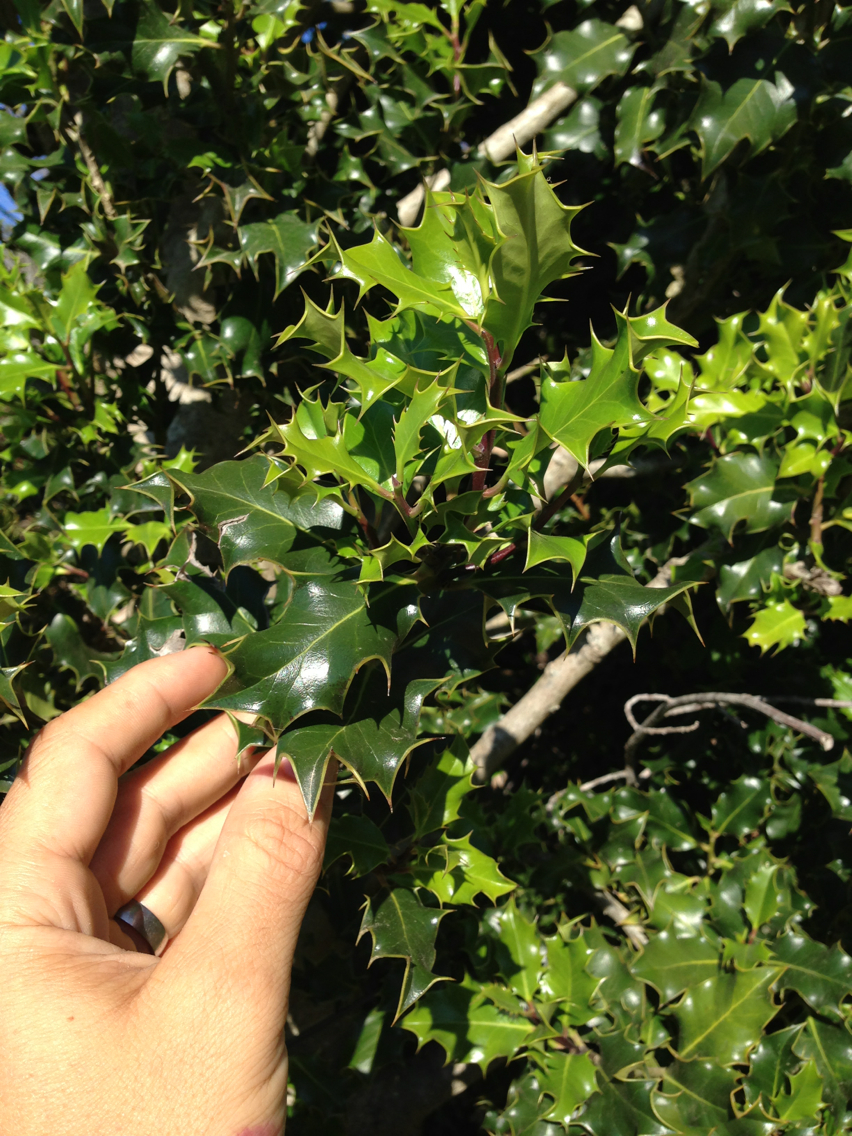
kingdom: Plantae
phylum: Tracheophyta
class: Magnoliopsida
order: Aquifoliales
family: Aquifoliaceae
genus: Ilex
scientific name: Ilex aquifolium
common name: English holly
